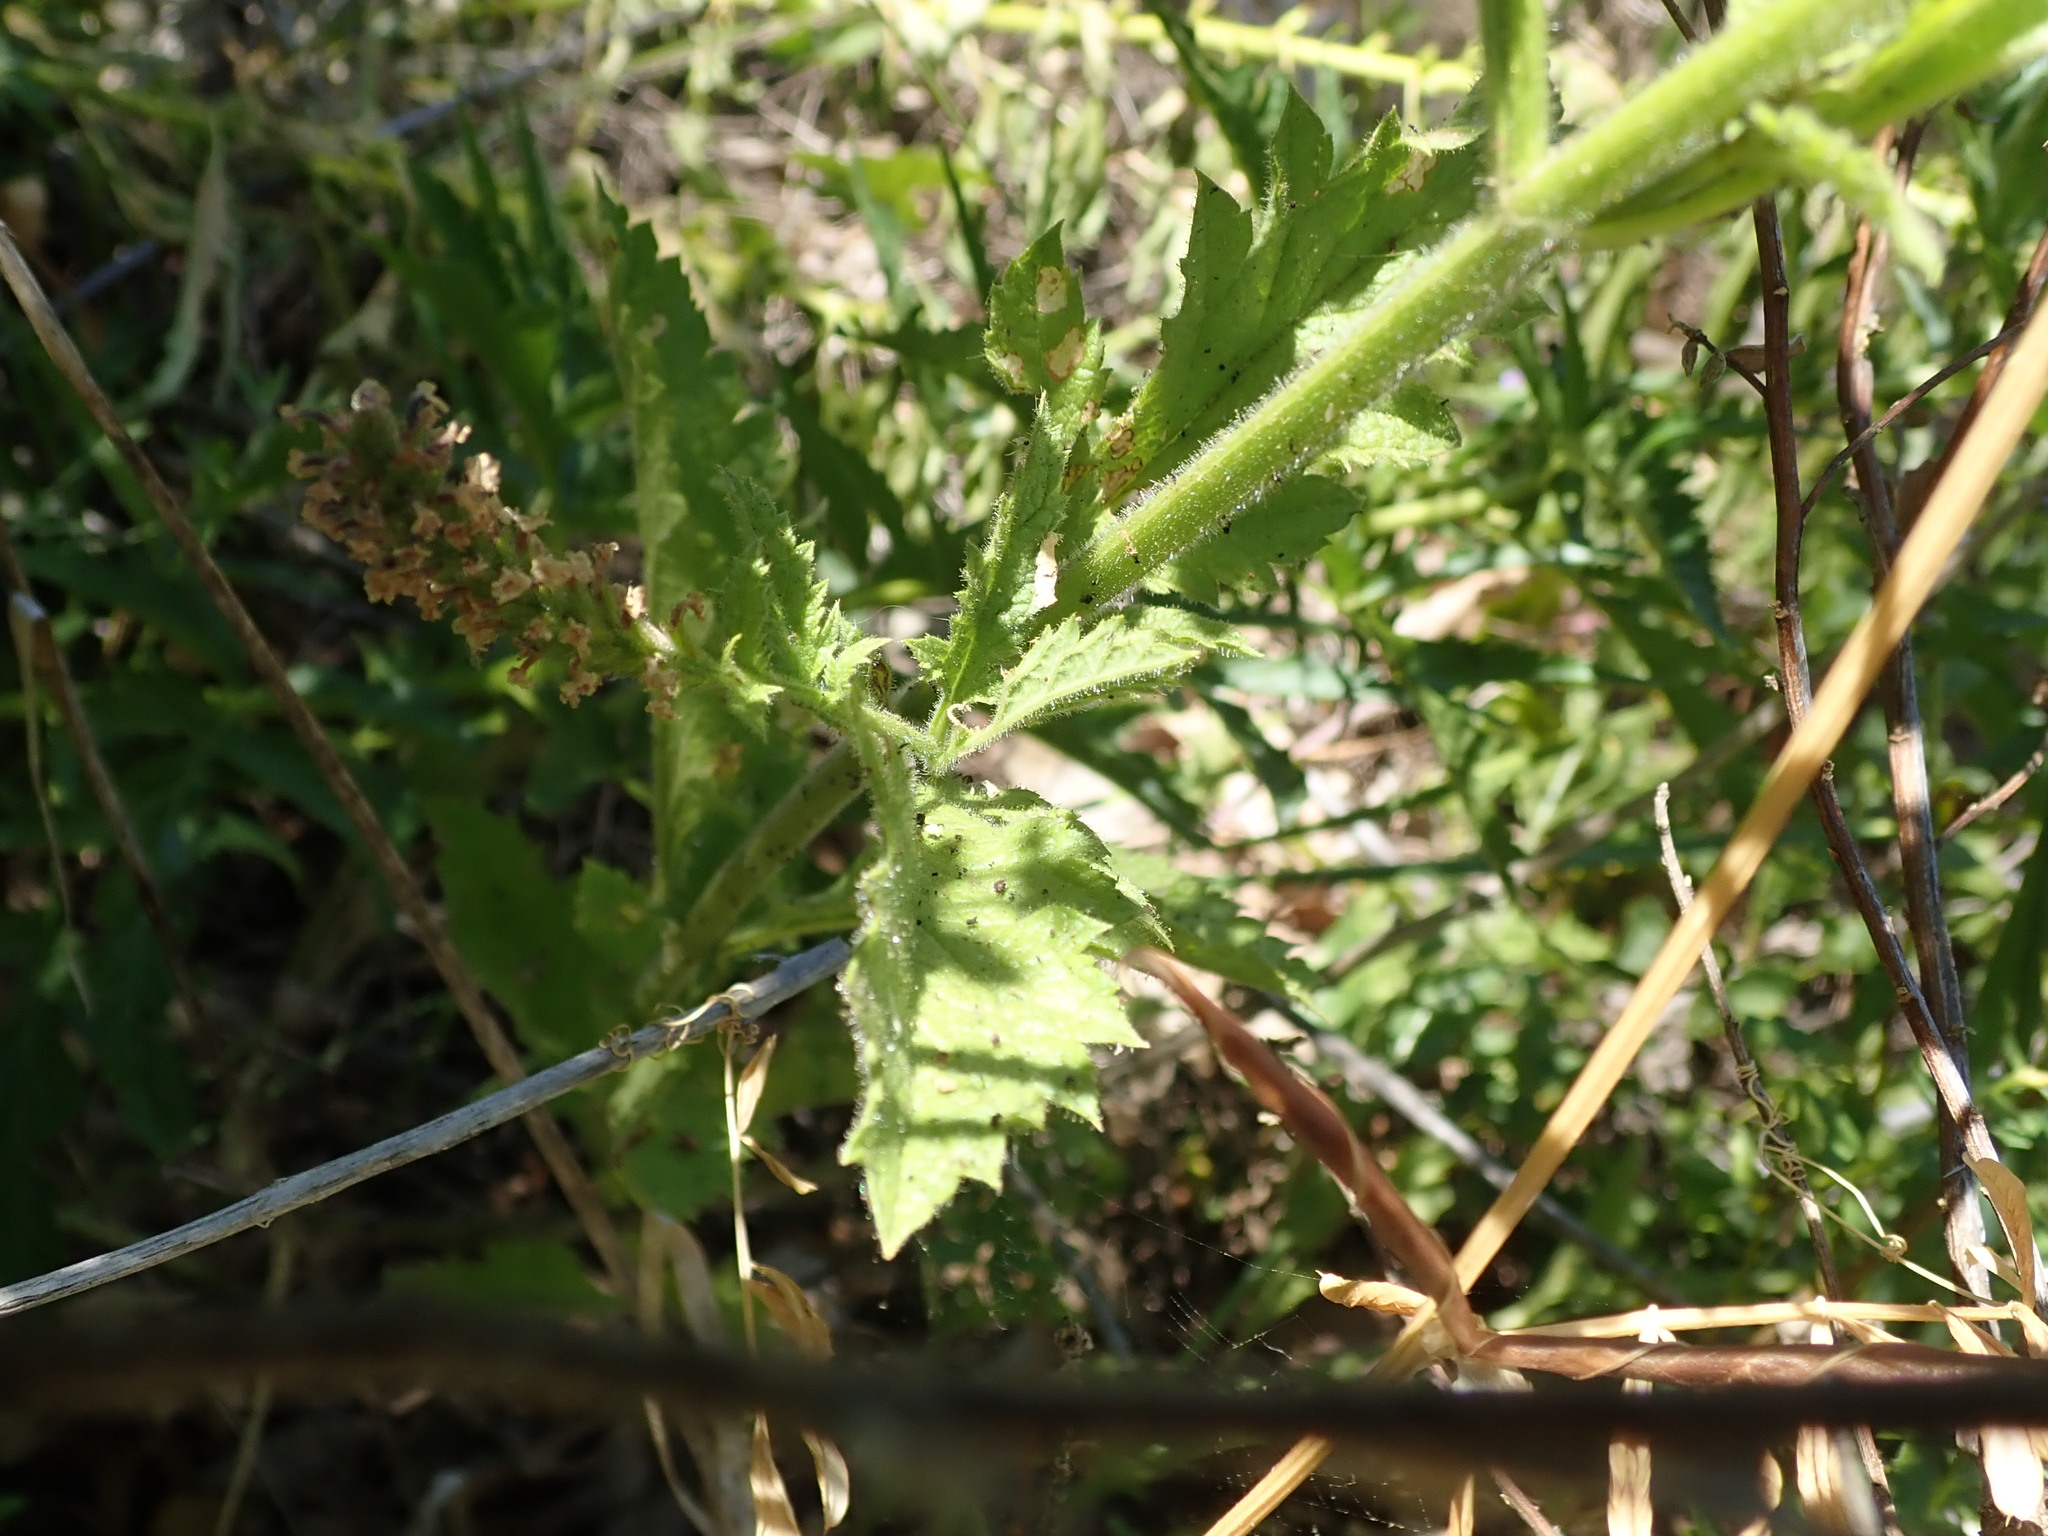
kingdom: Plantae
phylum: Tracheophyta
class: Magnoliopsida
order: Lamiales
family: Verbenaceae
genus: Verbena
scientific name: Verbena lasiostachys
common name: Vervain
